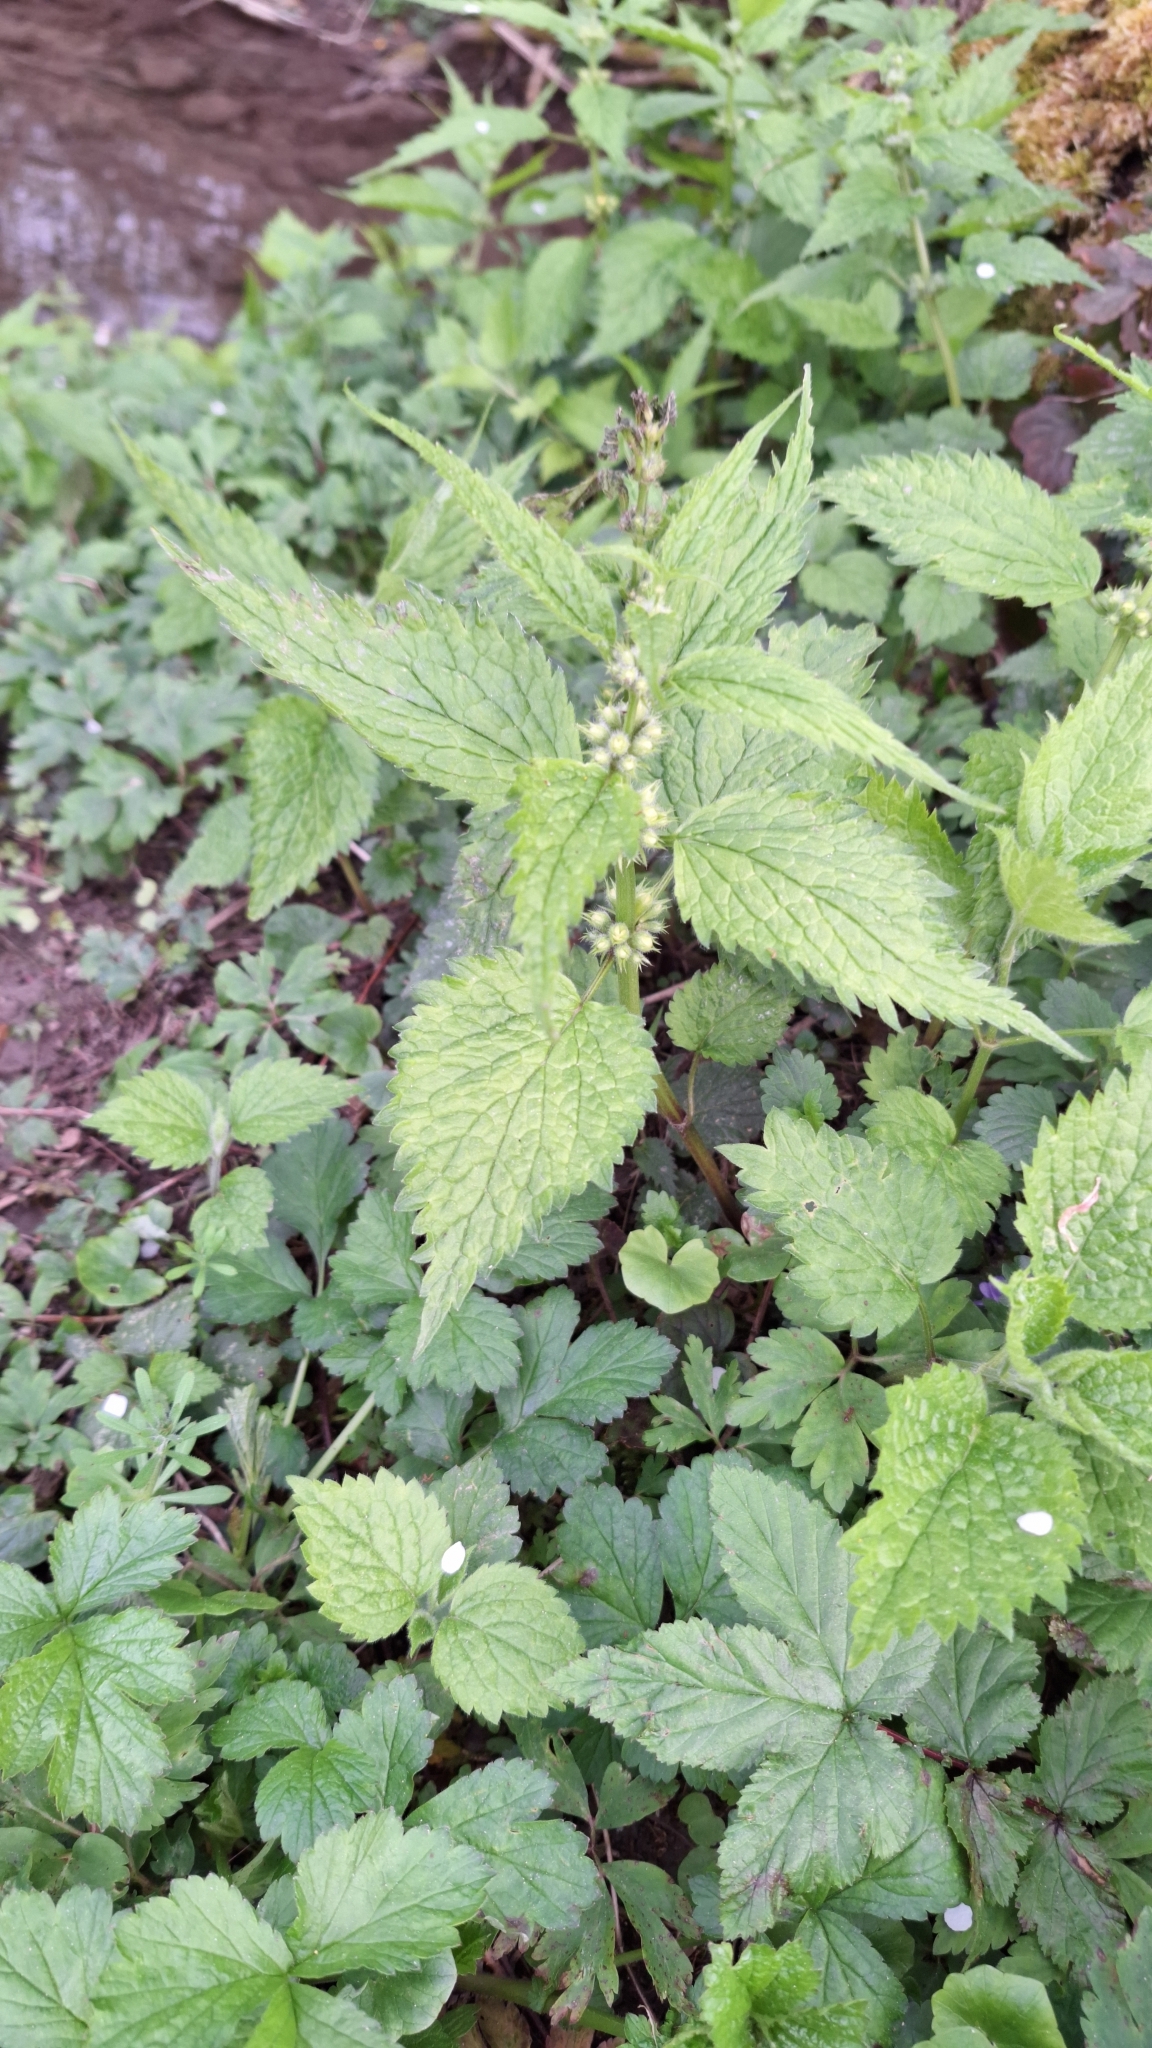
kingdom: Plantae
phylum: Tracheophyta
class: Magnoliopsida
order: Lamiales
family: Lamiaceae
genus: Lamium
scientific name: Lamium album
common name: White dead-nettle
